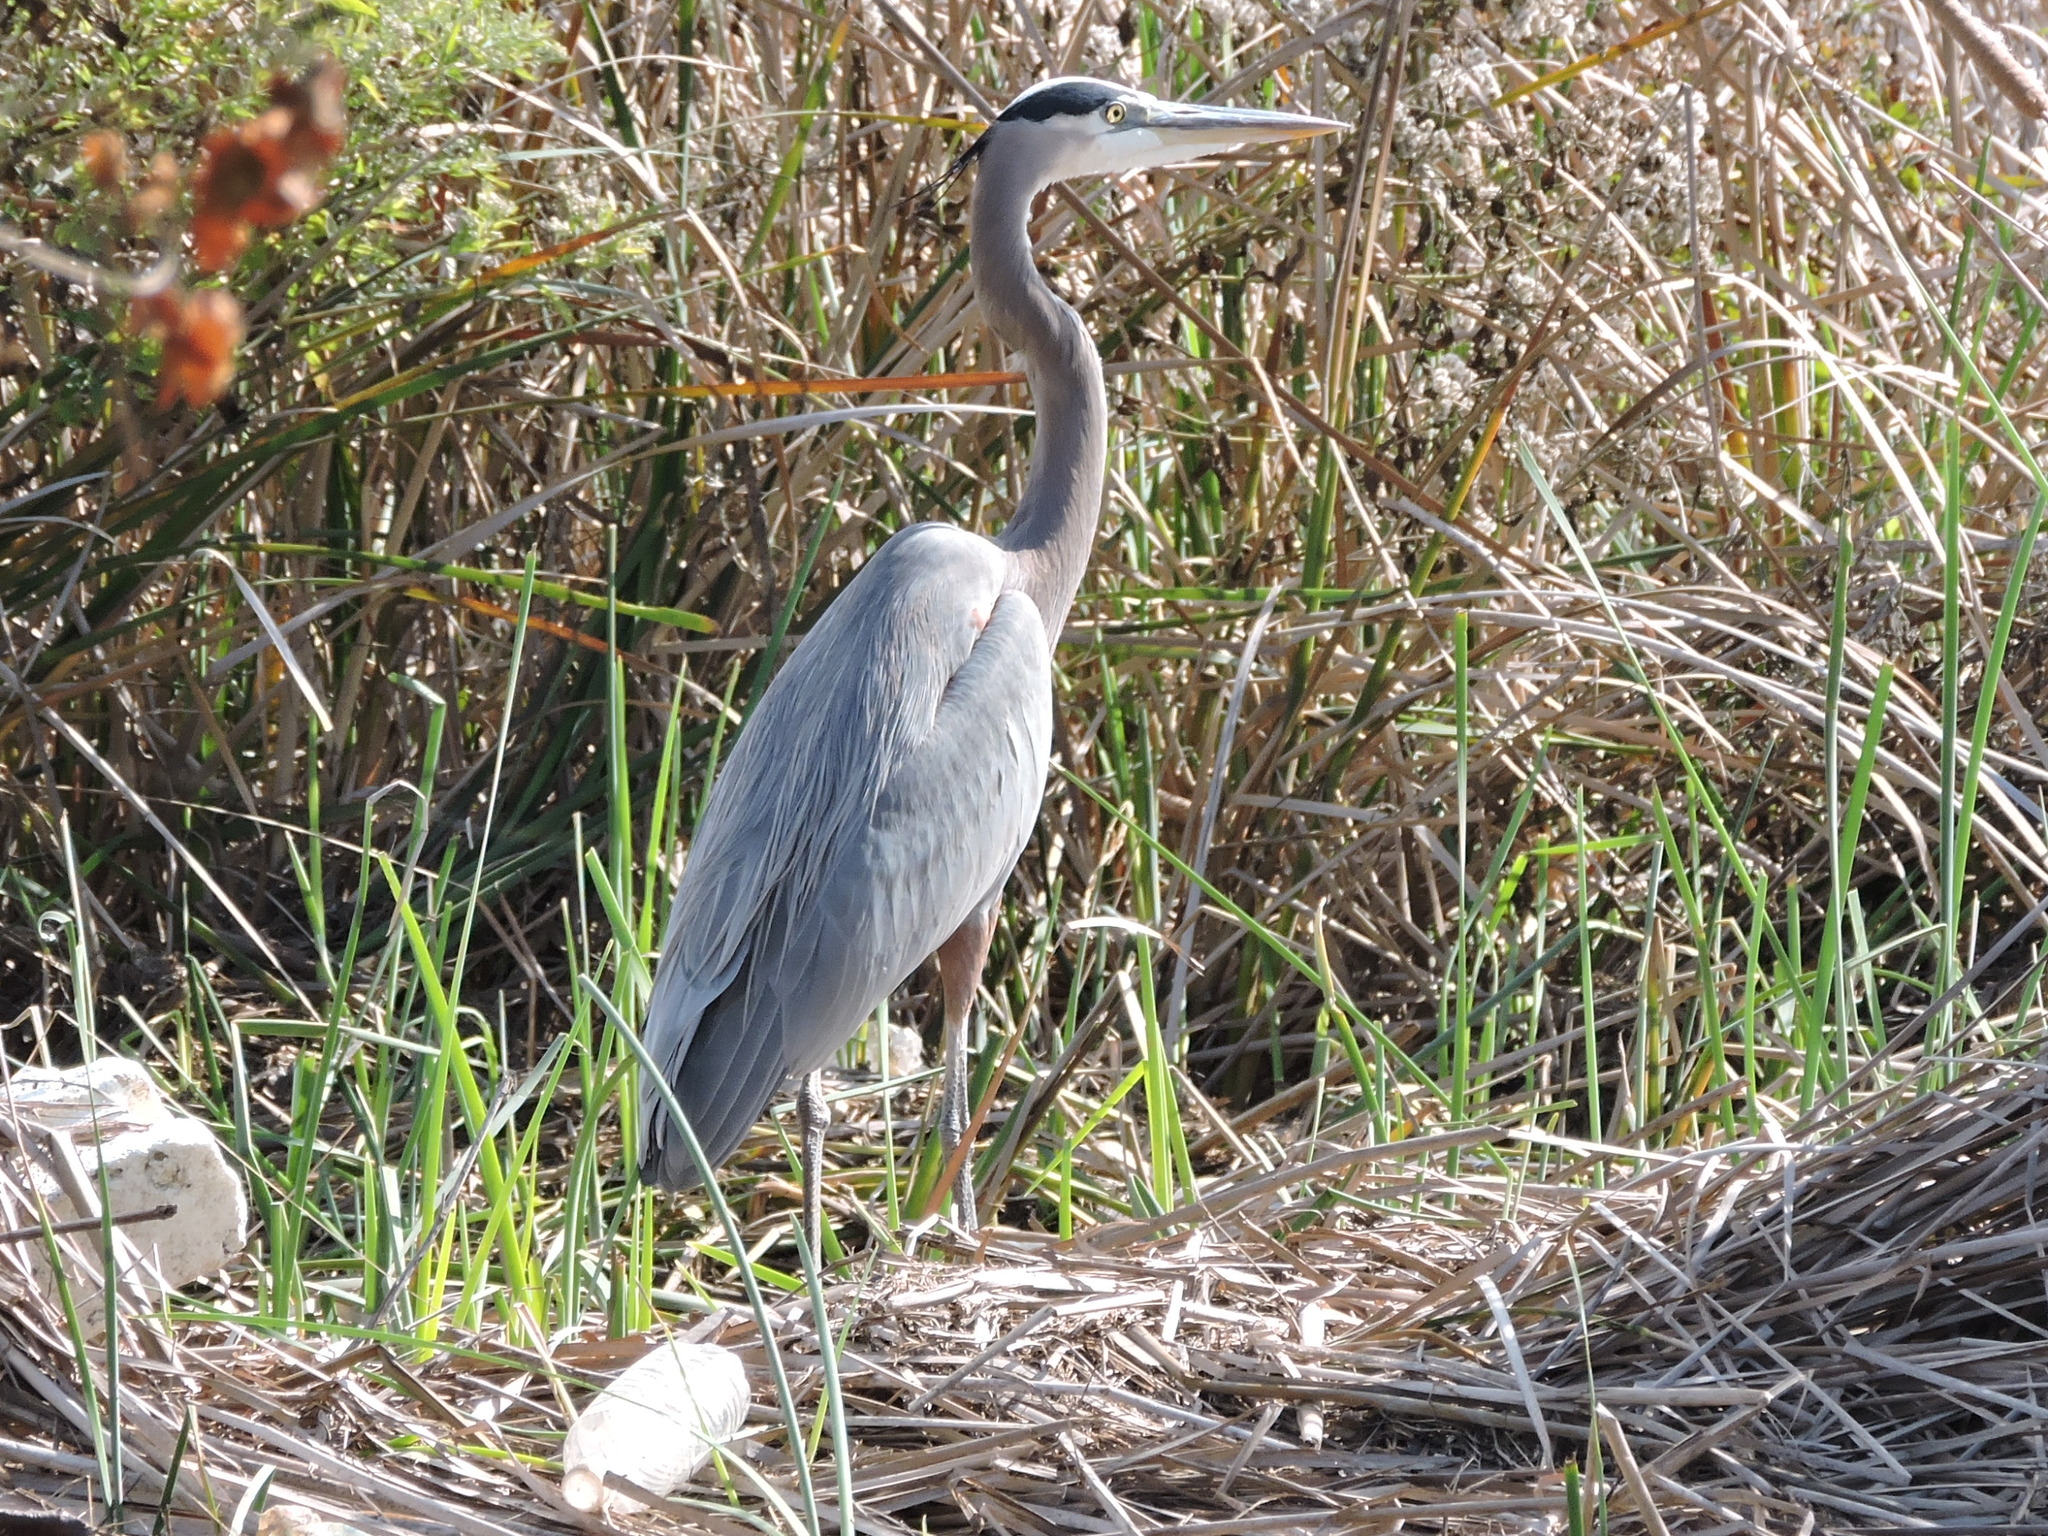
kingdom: Animalia
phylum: Chordata
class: Aves
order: Pelecaniformes
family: Ardeidae
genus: Ardea
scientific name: Ardea herodias
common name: Great blue heron
